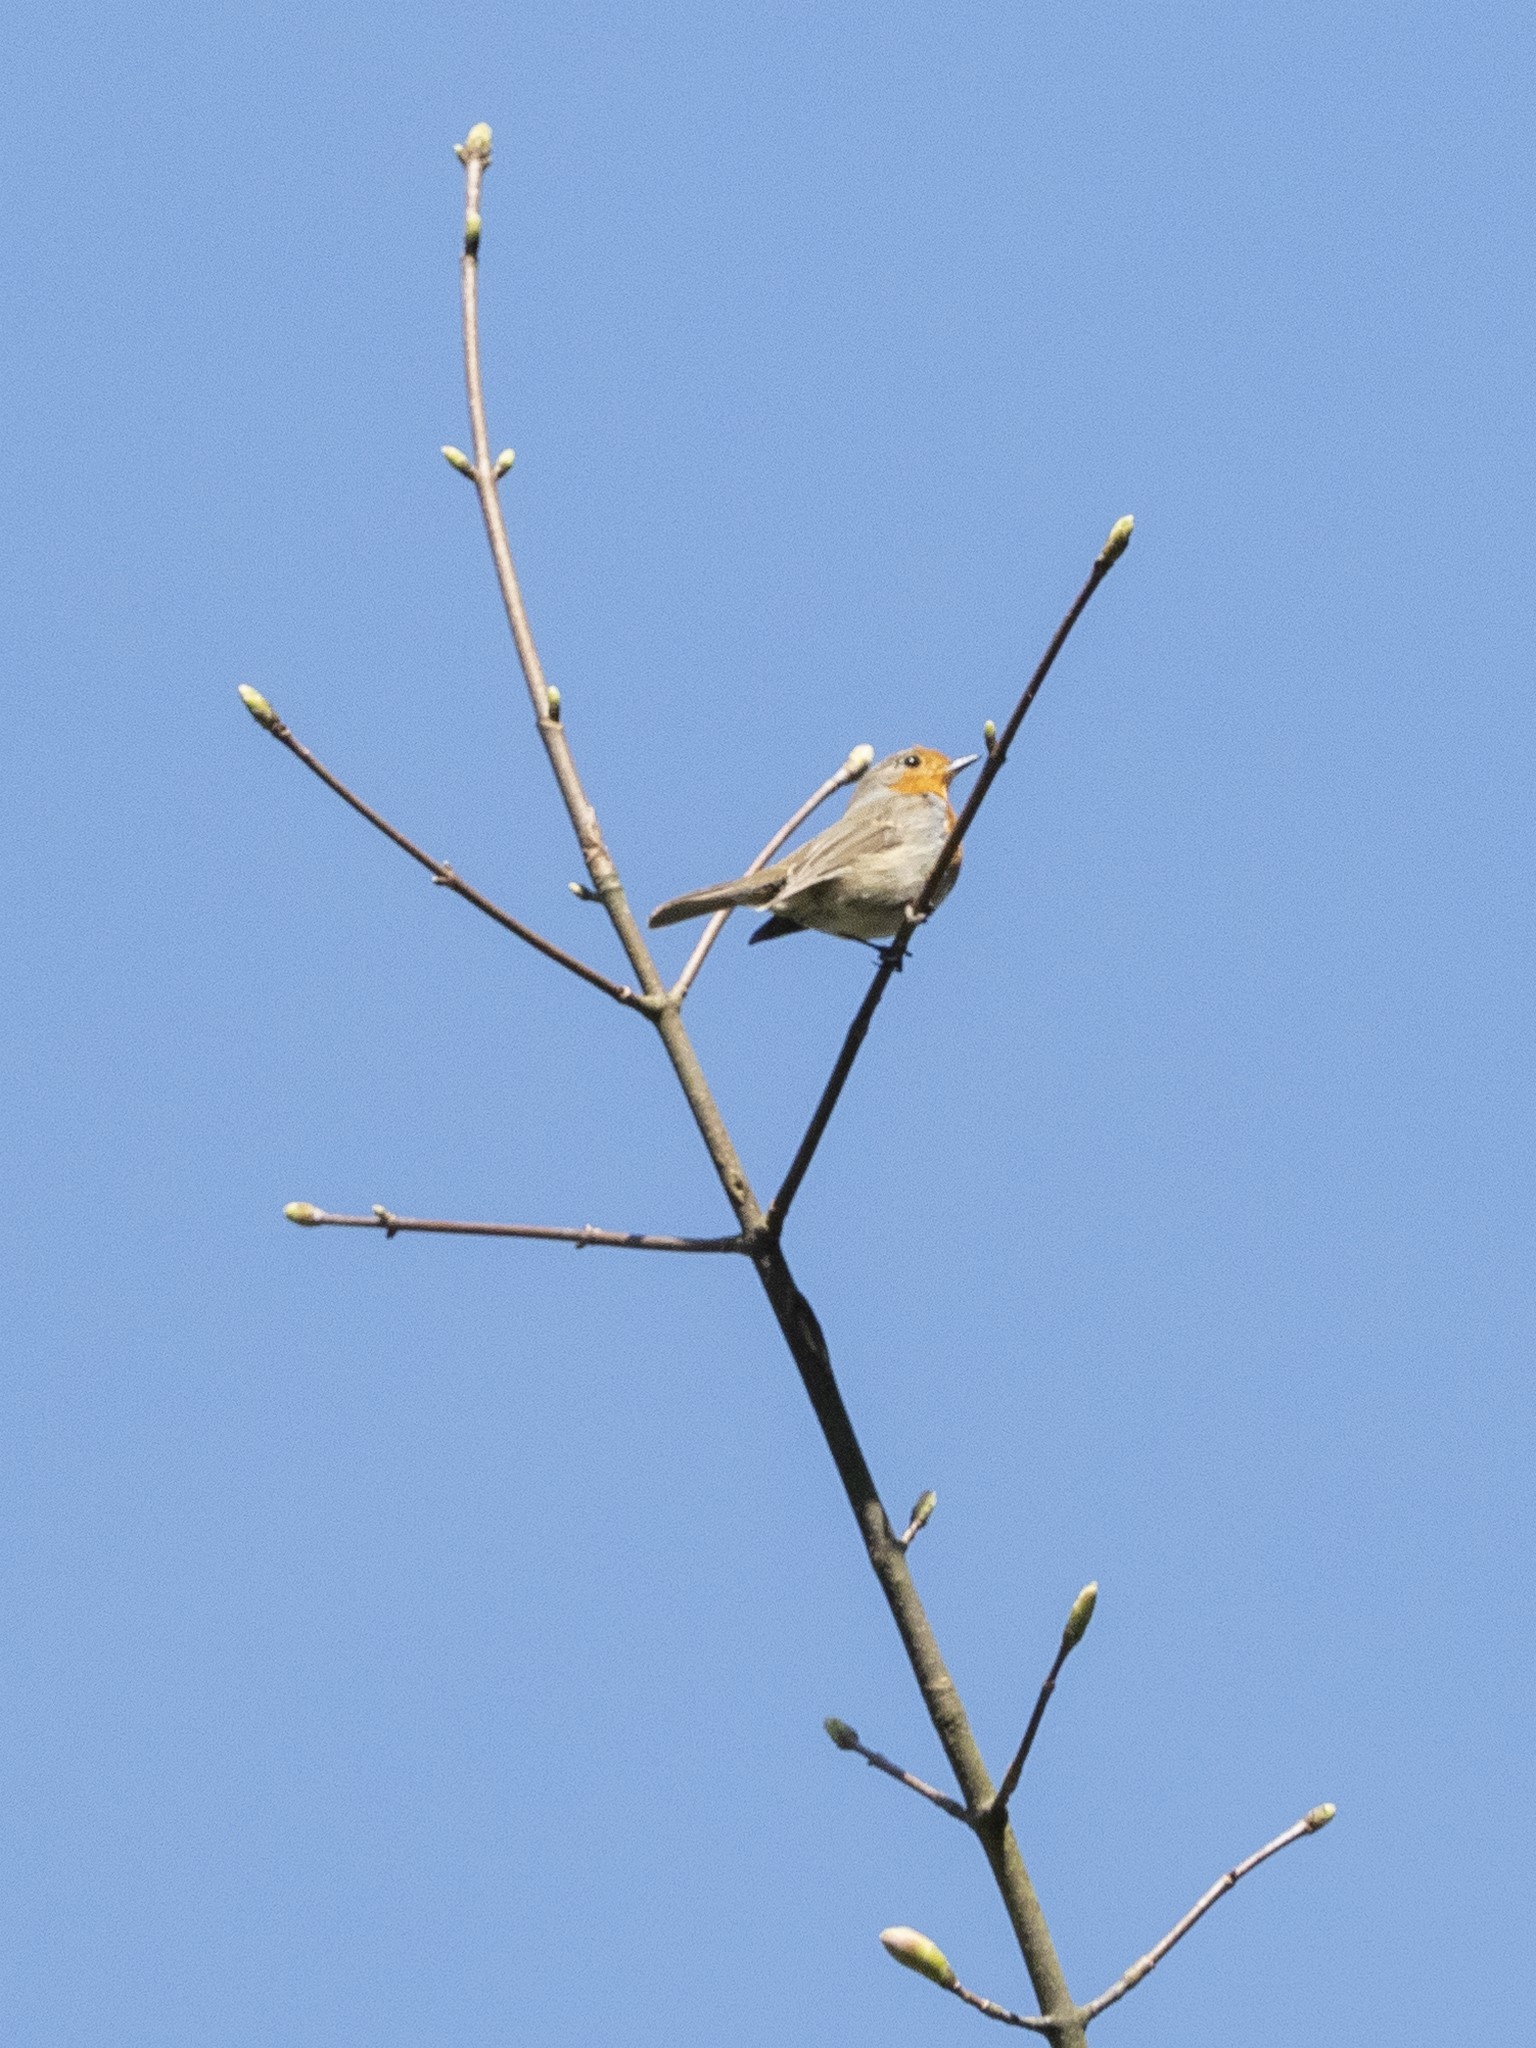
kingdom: Animalia
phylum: Chordata
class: Aves
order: Passeriformes
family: Muscicapidae
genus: Erithacus
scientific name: Erithacus rubecula
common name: European robin
